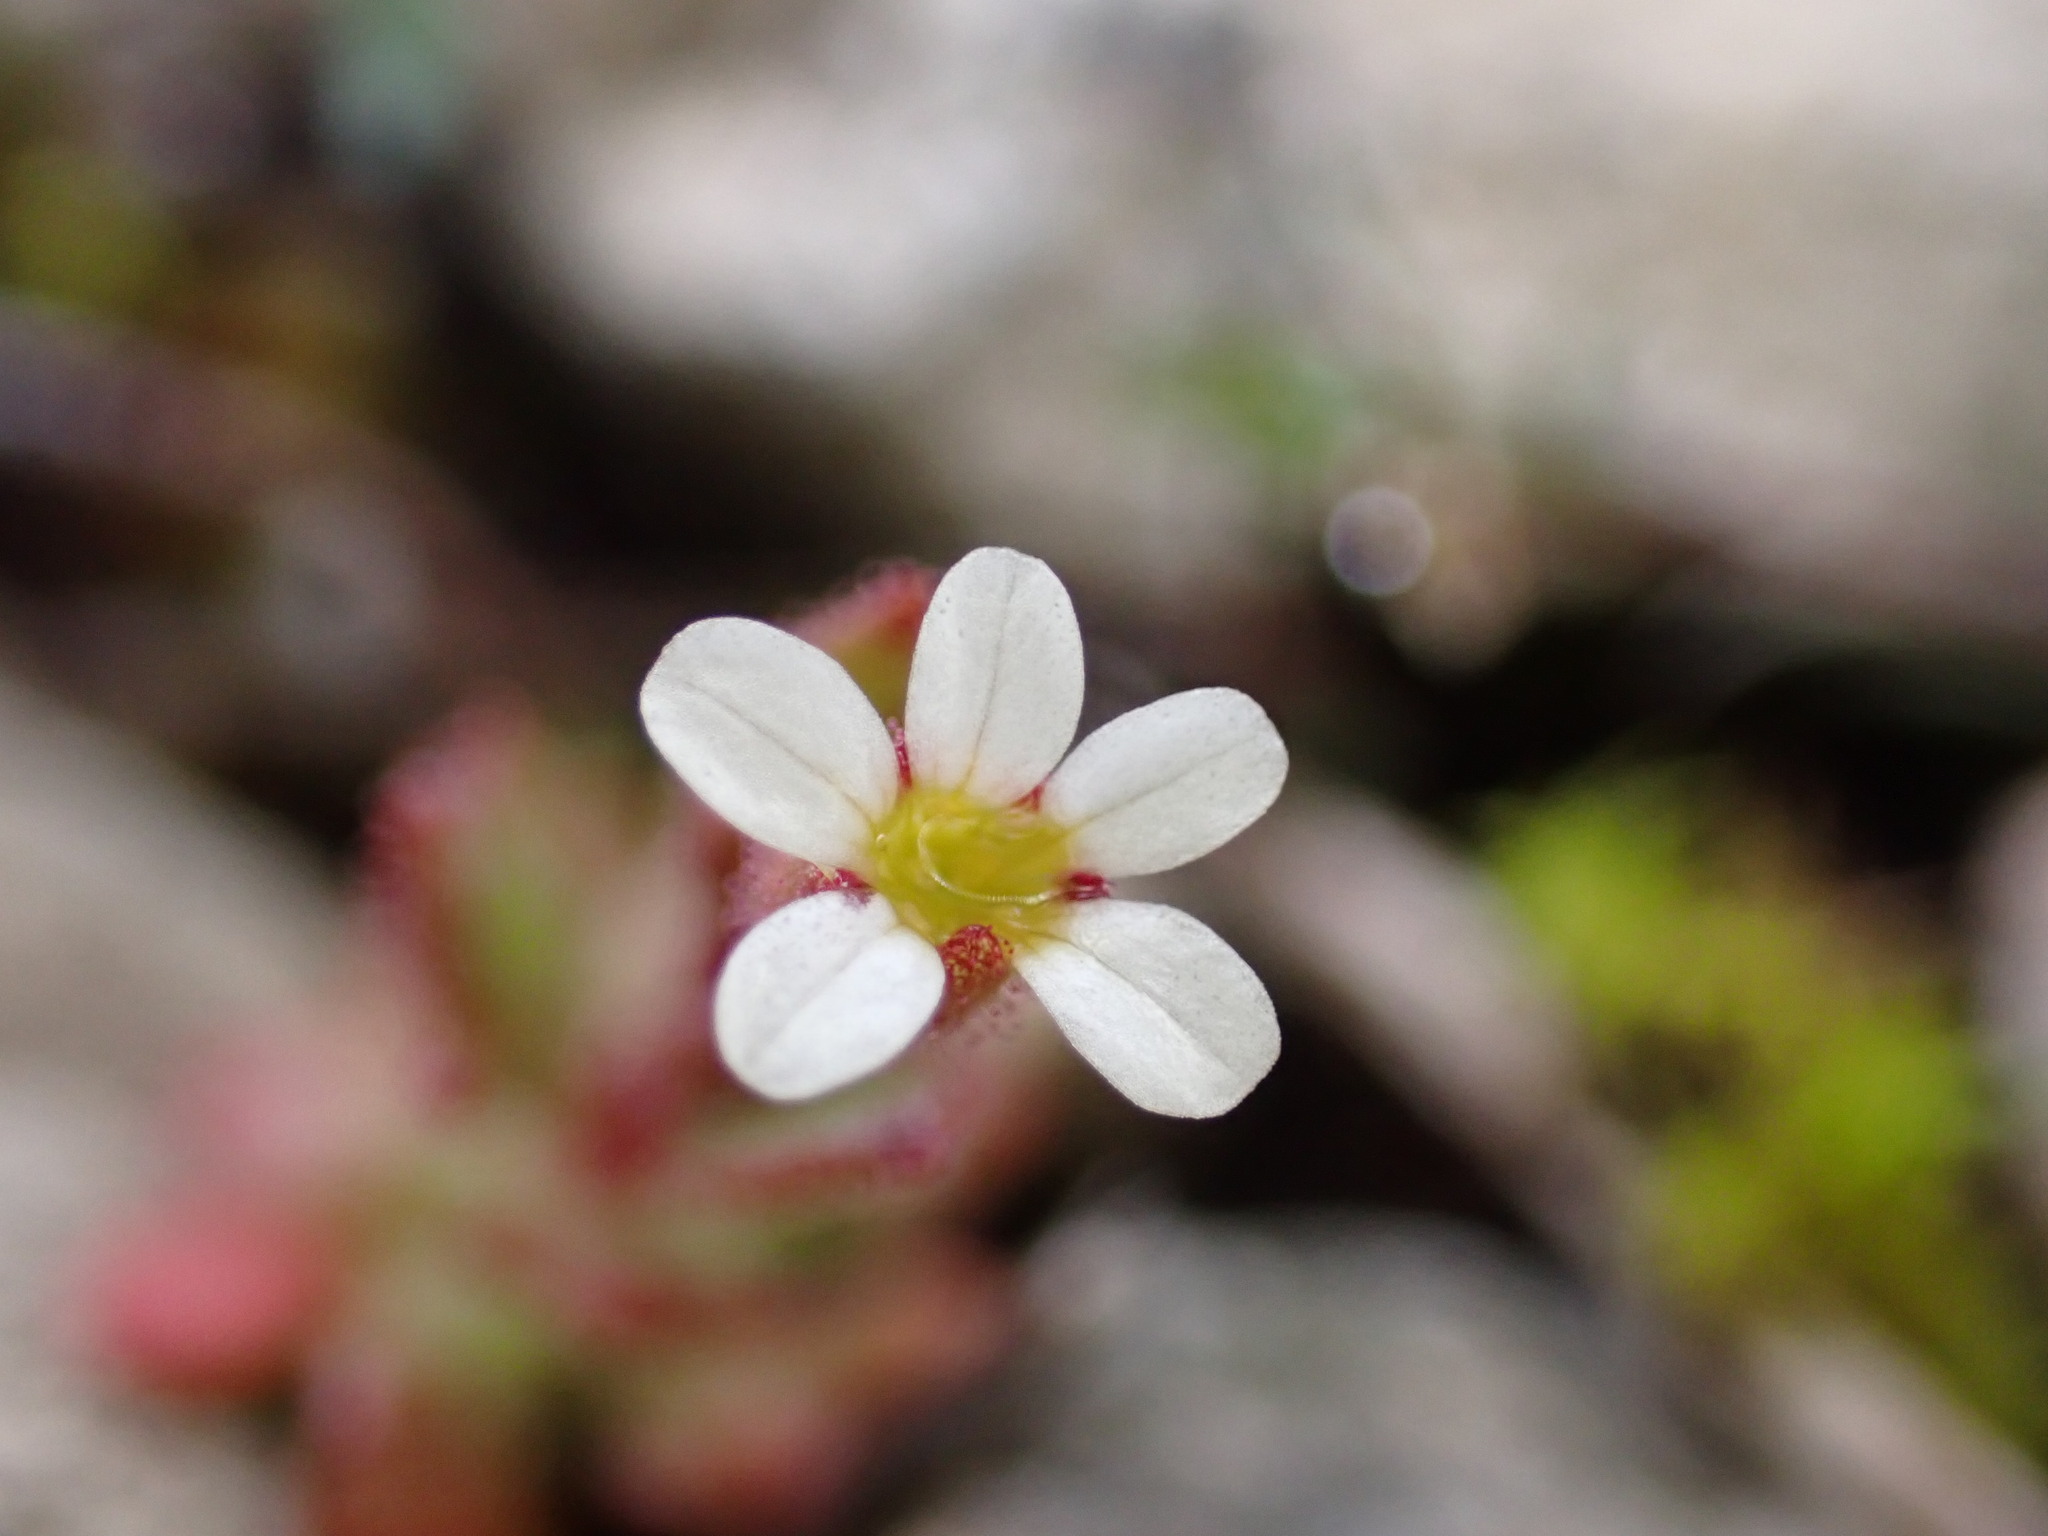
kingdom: Plantae
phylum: Tracheophyta
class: Magnoliopsida
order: Saxifragales
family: Saxifragaceae
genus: Saxifraga
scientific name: Saxifraga tridactylites
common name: Rue-leaved saxifrage
